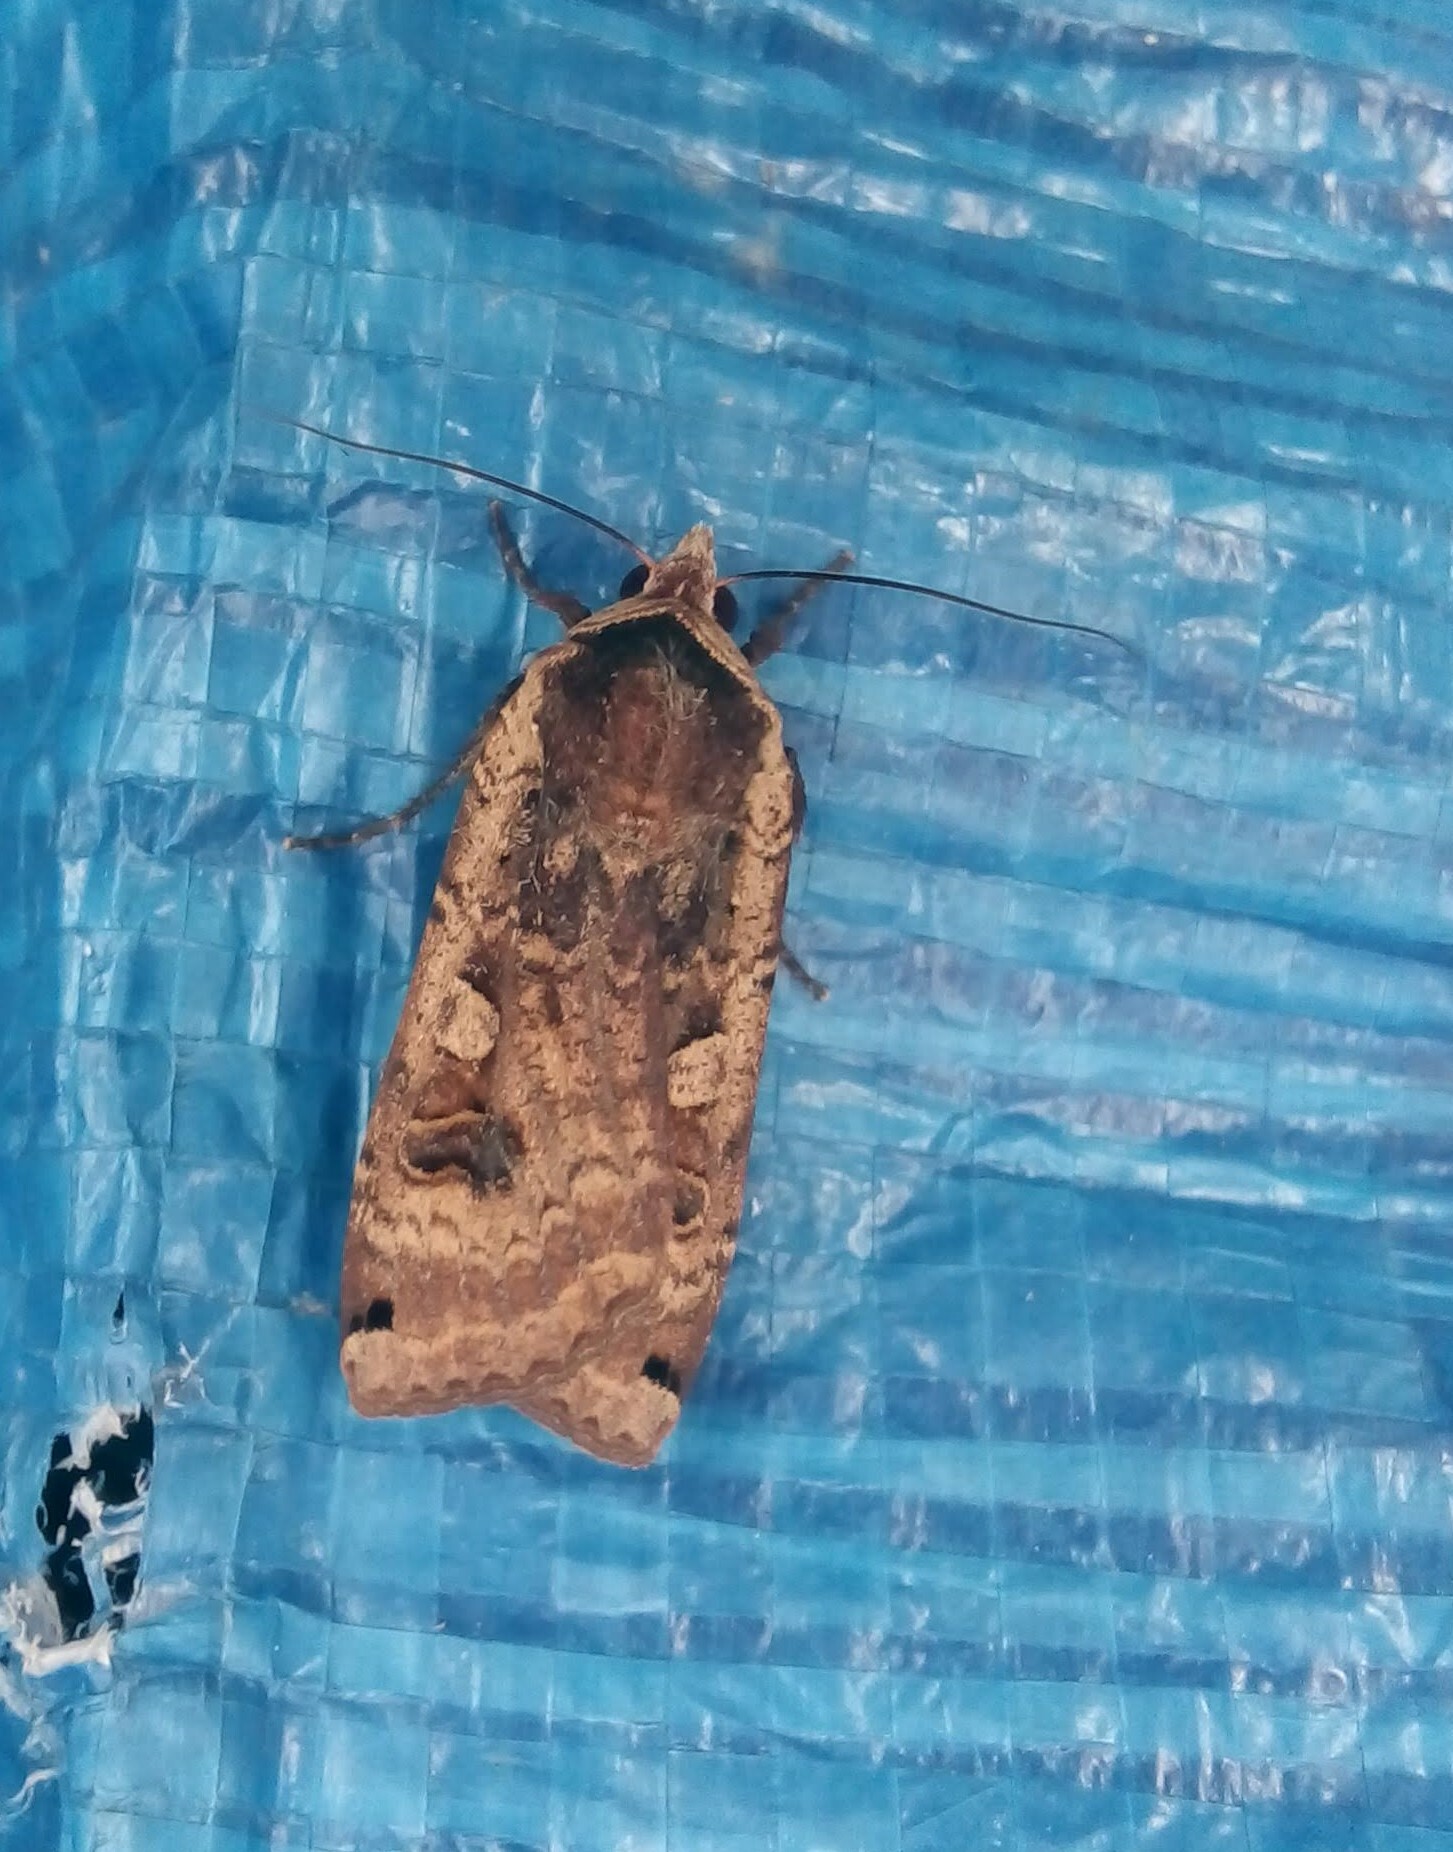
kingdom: Animalia
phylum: Arthropoda
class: Insecta
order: Lepidoptera
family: Noctuidae
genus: Noctua
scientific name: Noctua pronuba
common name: Large yellow underwing
